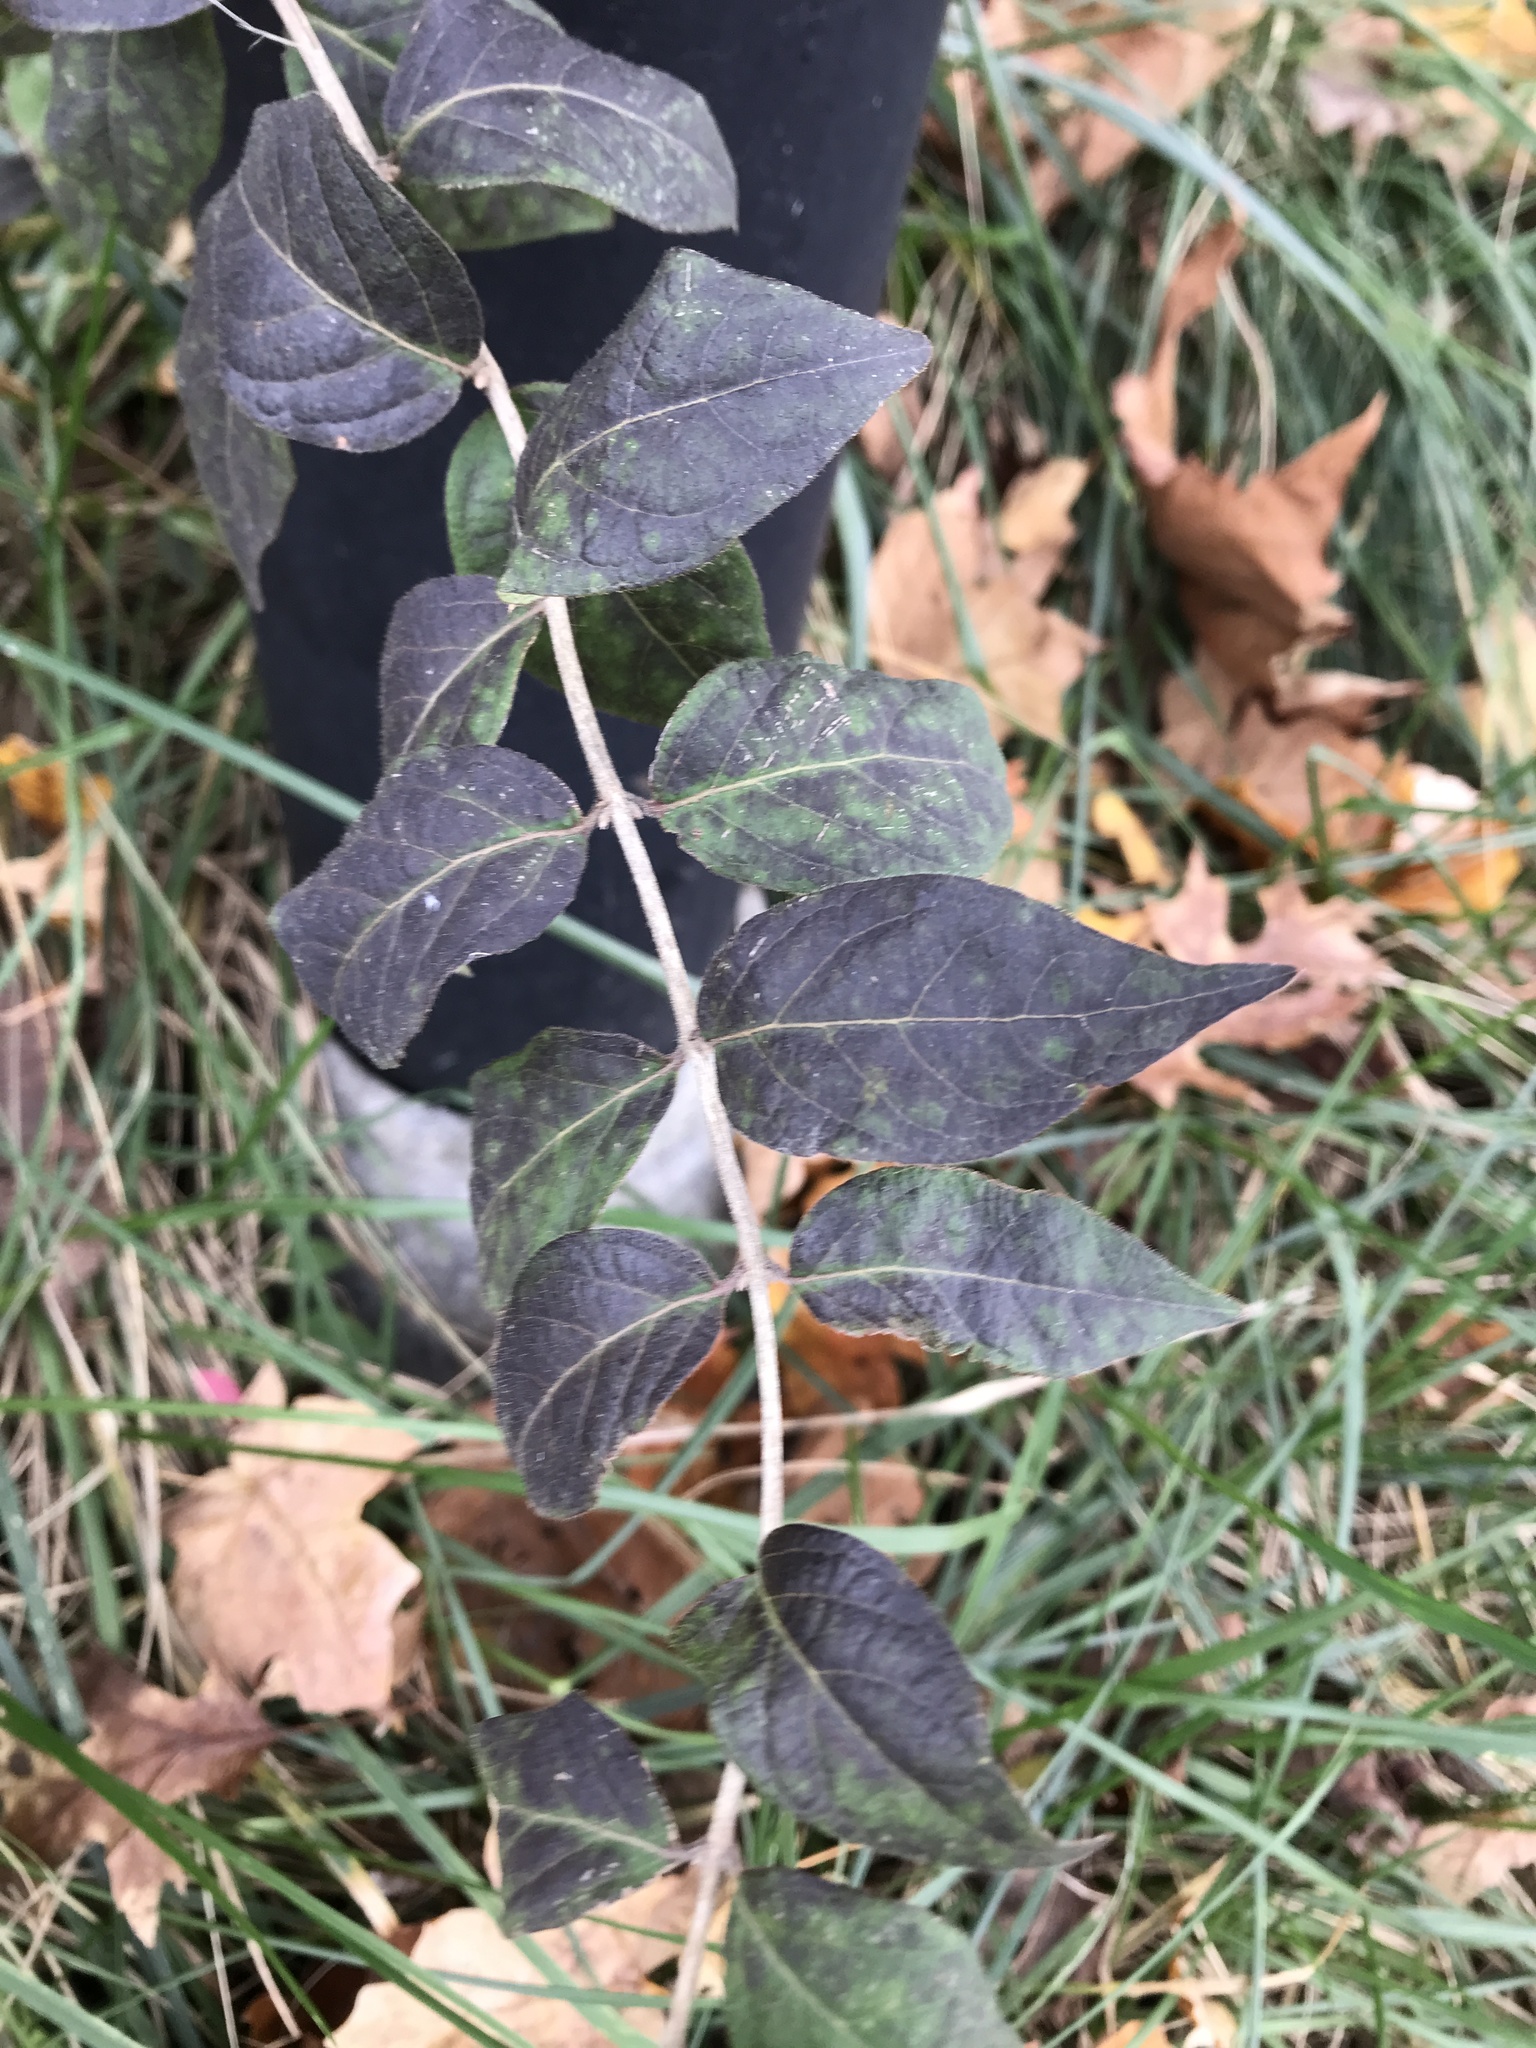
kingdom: Plantae
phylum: Tracheophyta
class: Magnoliopsida
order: Dipsacales
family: Caprifoliaceae
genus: Lonicera
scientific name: Lonicera maackii
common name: Amur honeysuckle
